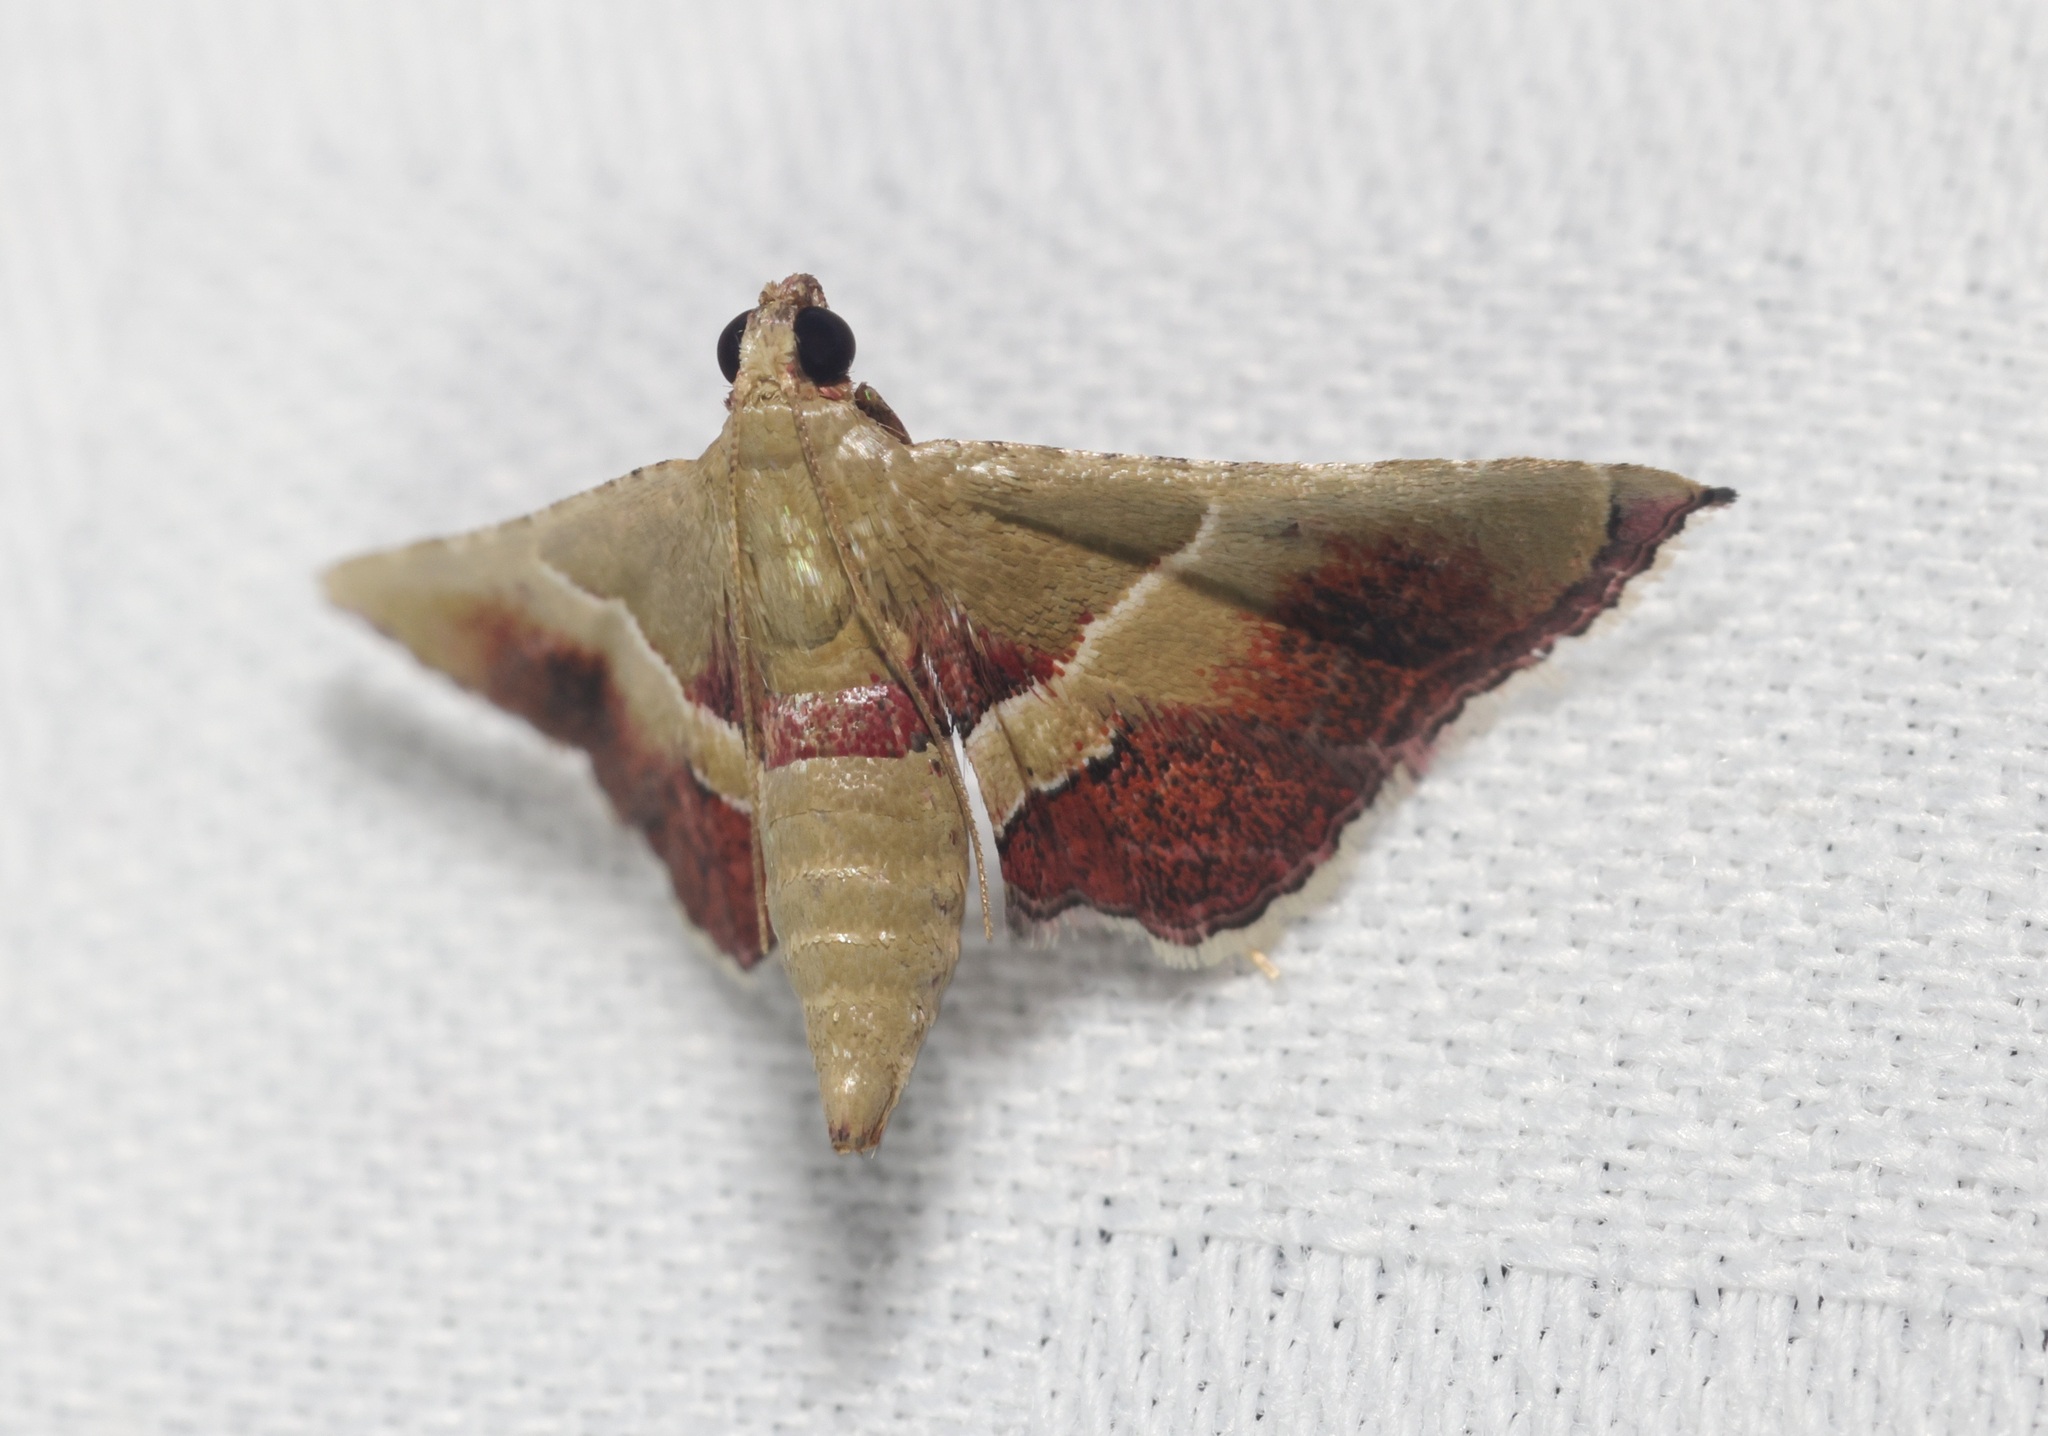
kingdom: Animalia
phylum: Arthropoda
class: Insecta
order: Lepidoptera
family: Pyralidae
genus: Endotricha
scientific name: Endotricha repandalis
